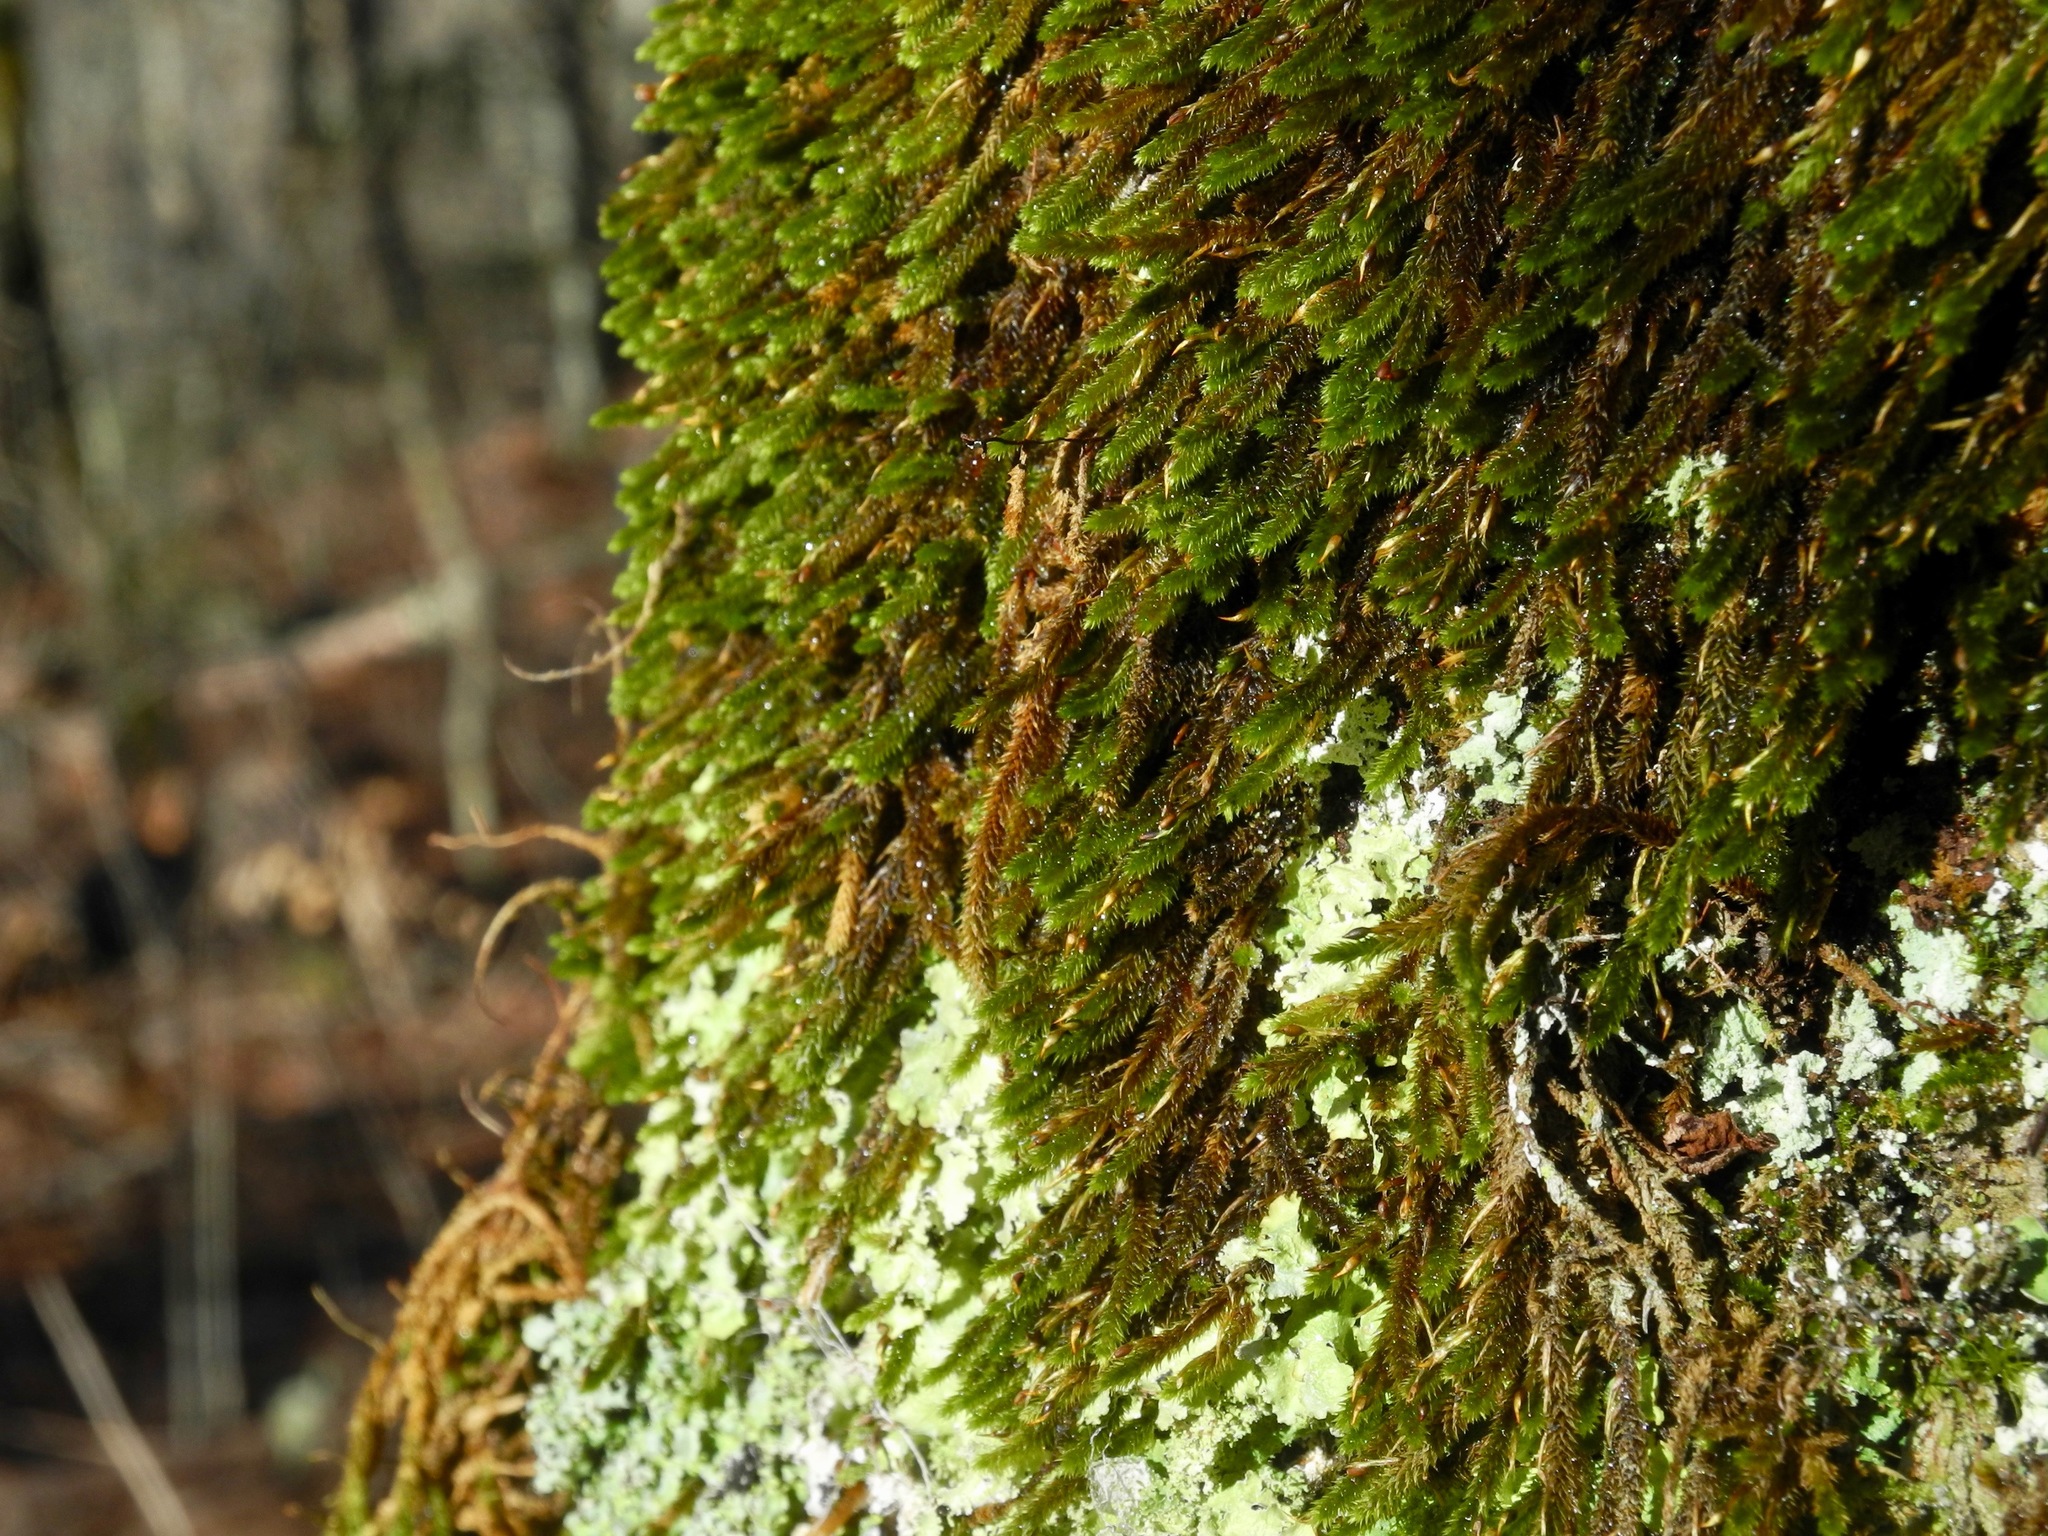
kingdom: Plantae
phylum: Bryophyta
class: Bryopsida
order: Hypnales
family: Leucodontaceae
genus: Leucodon
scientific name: Leucodon julaceus
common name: Smooth hook moss
